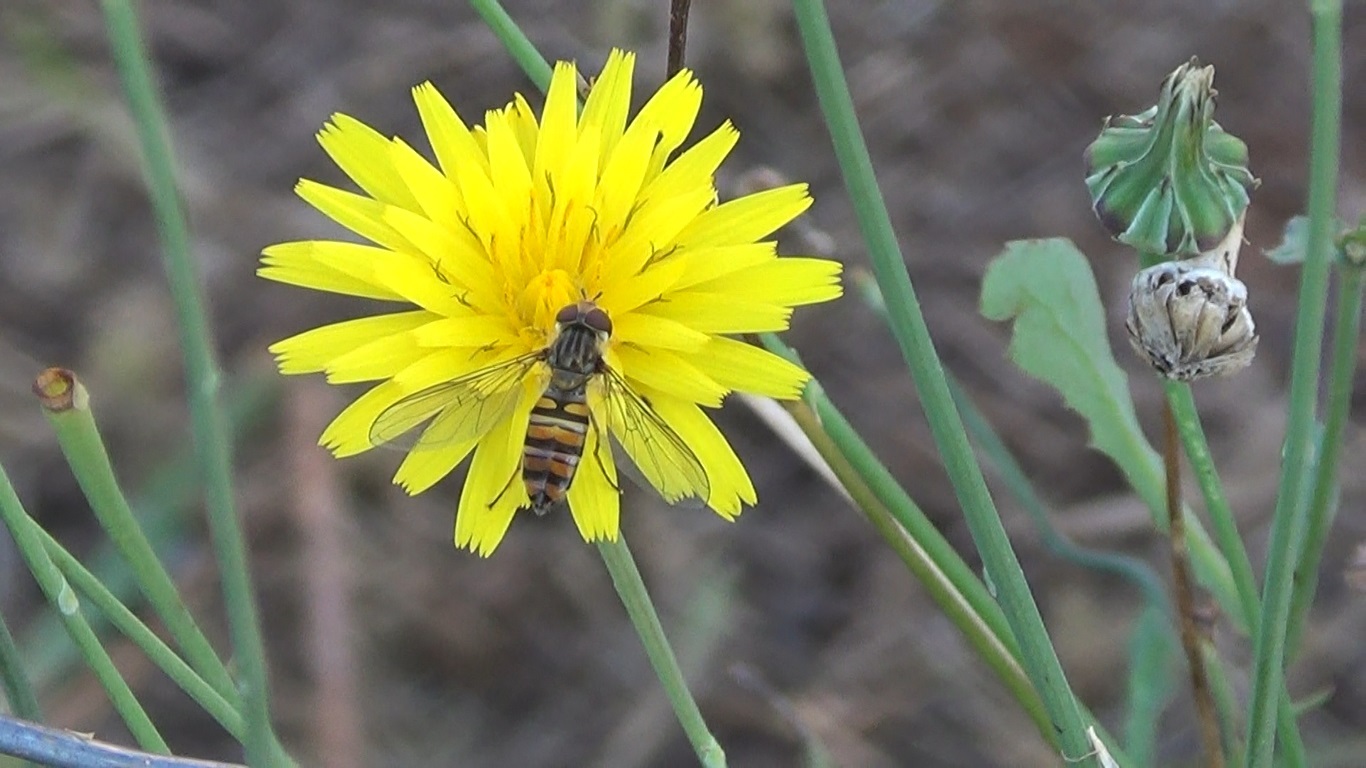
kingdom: Animalia
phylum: Arthropoda
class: Insecta
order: Diptera
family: Syrphidae
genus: Episyrphus
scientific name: Episyrphus balteatus
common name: Marmalade hoverfly
